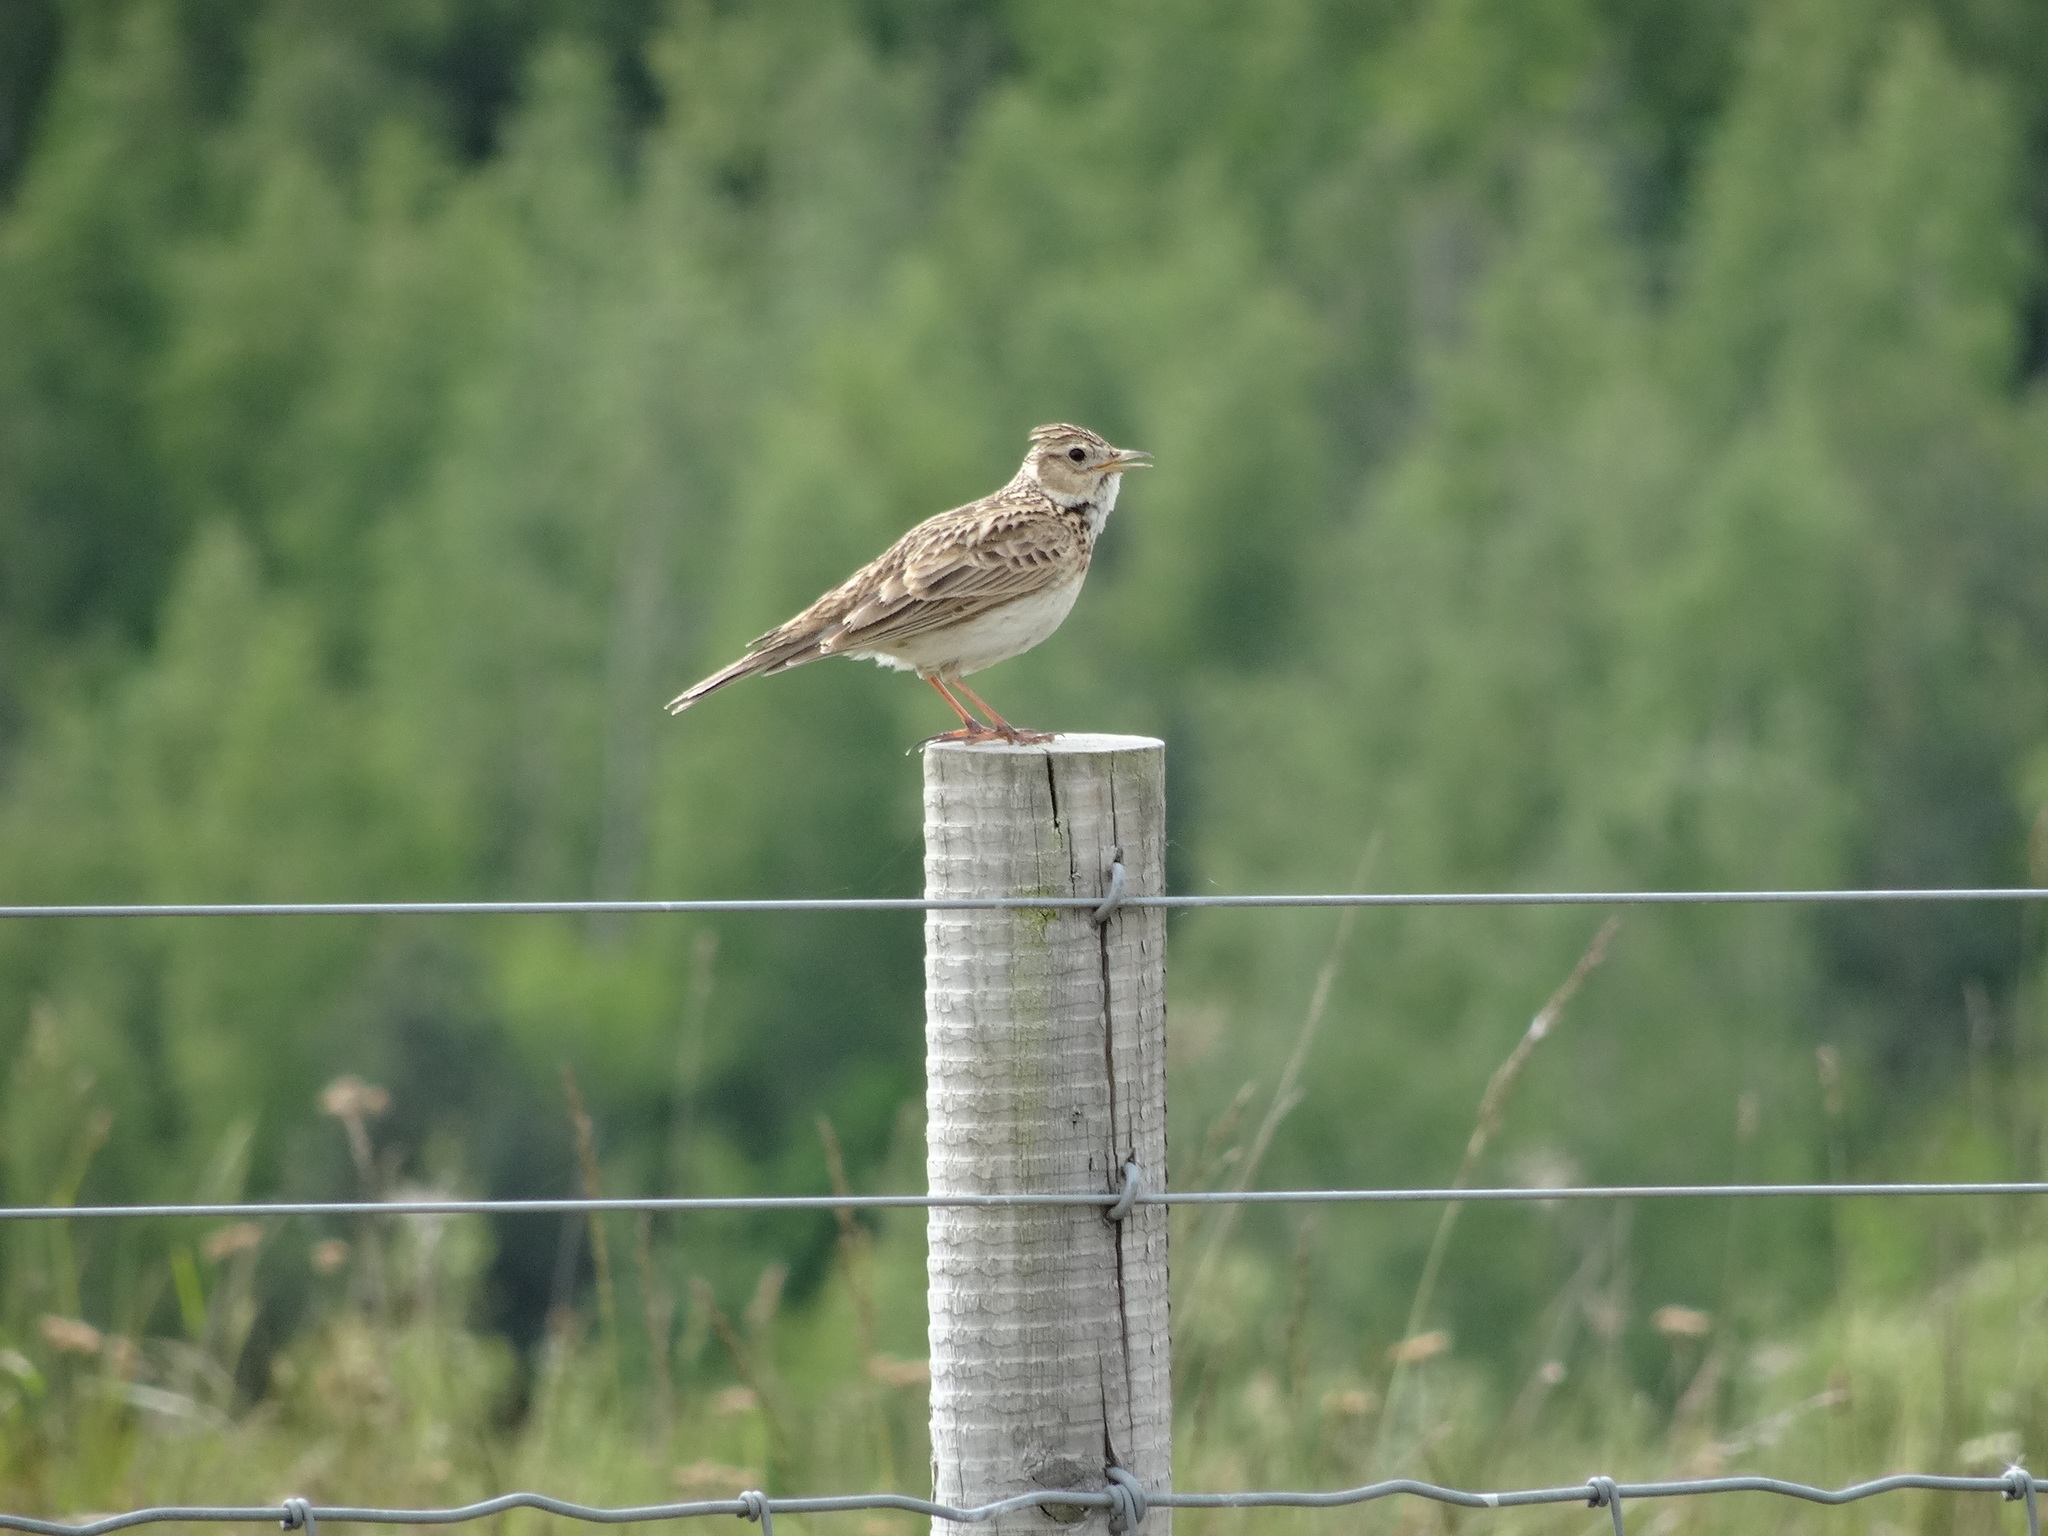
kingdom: Animalia
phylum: Chordata
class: Aves
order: Passeriformes
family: Alaudidae
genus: Alauda
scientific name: Alauda arvensis
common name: Eurasian skylark
